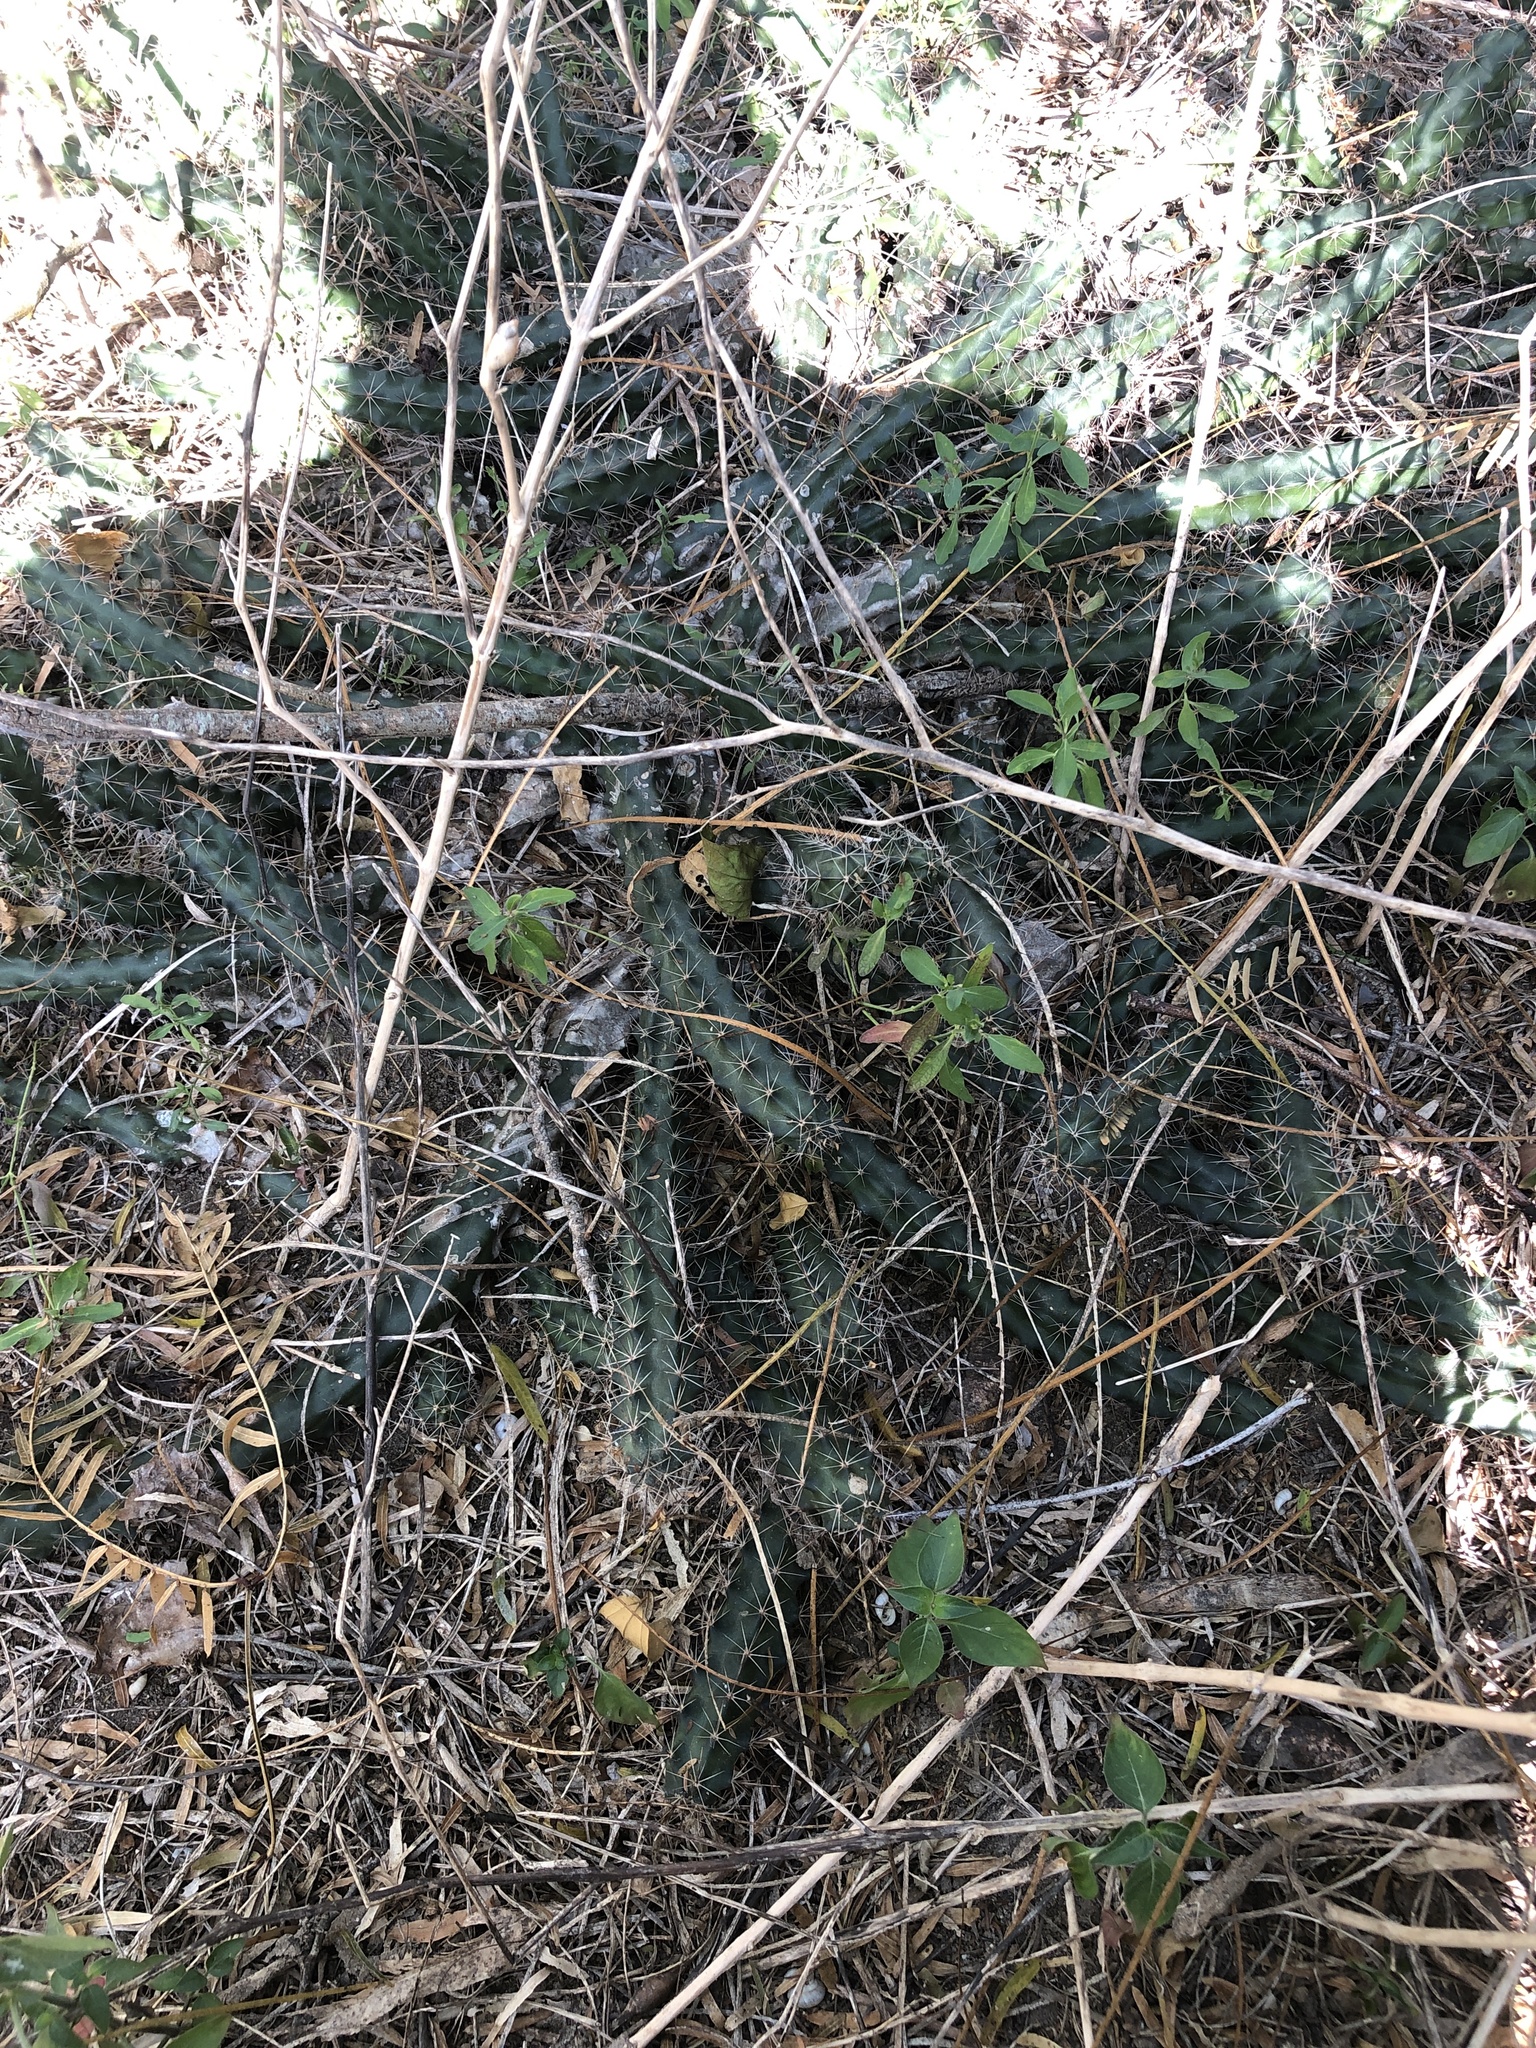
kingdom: Plantae
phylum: Tracheophyta
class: Magnoliopsida
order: Caryophyllales
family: Cactaceae
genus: Echinocereus
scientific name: Echinocereus berlandieri
